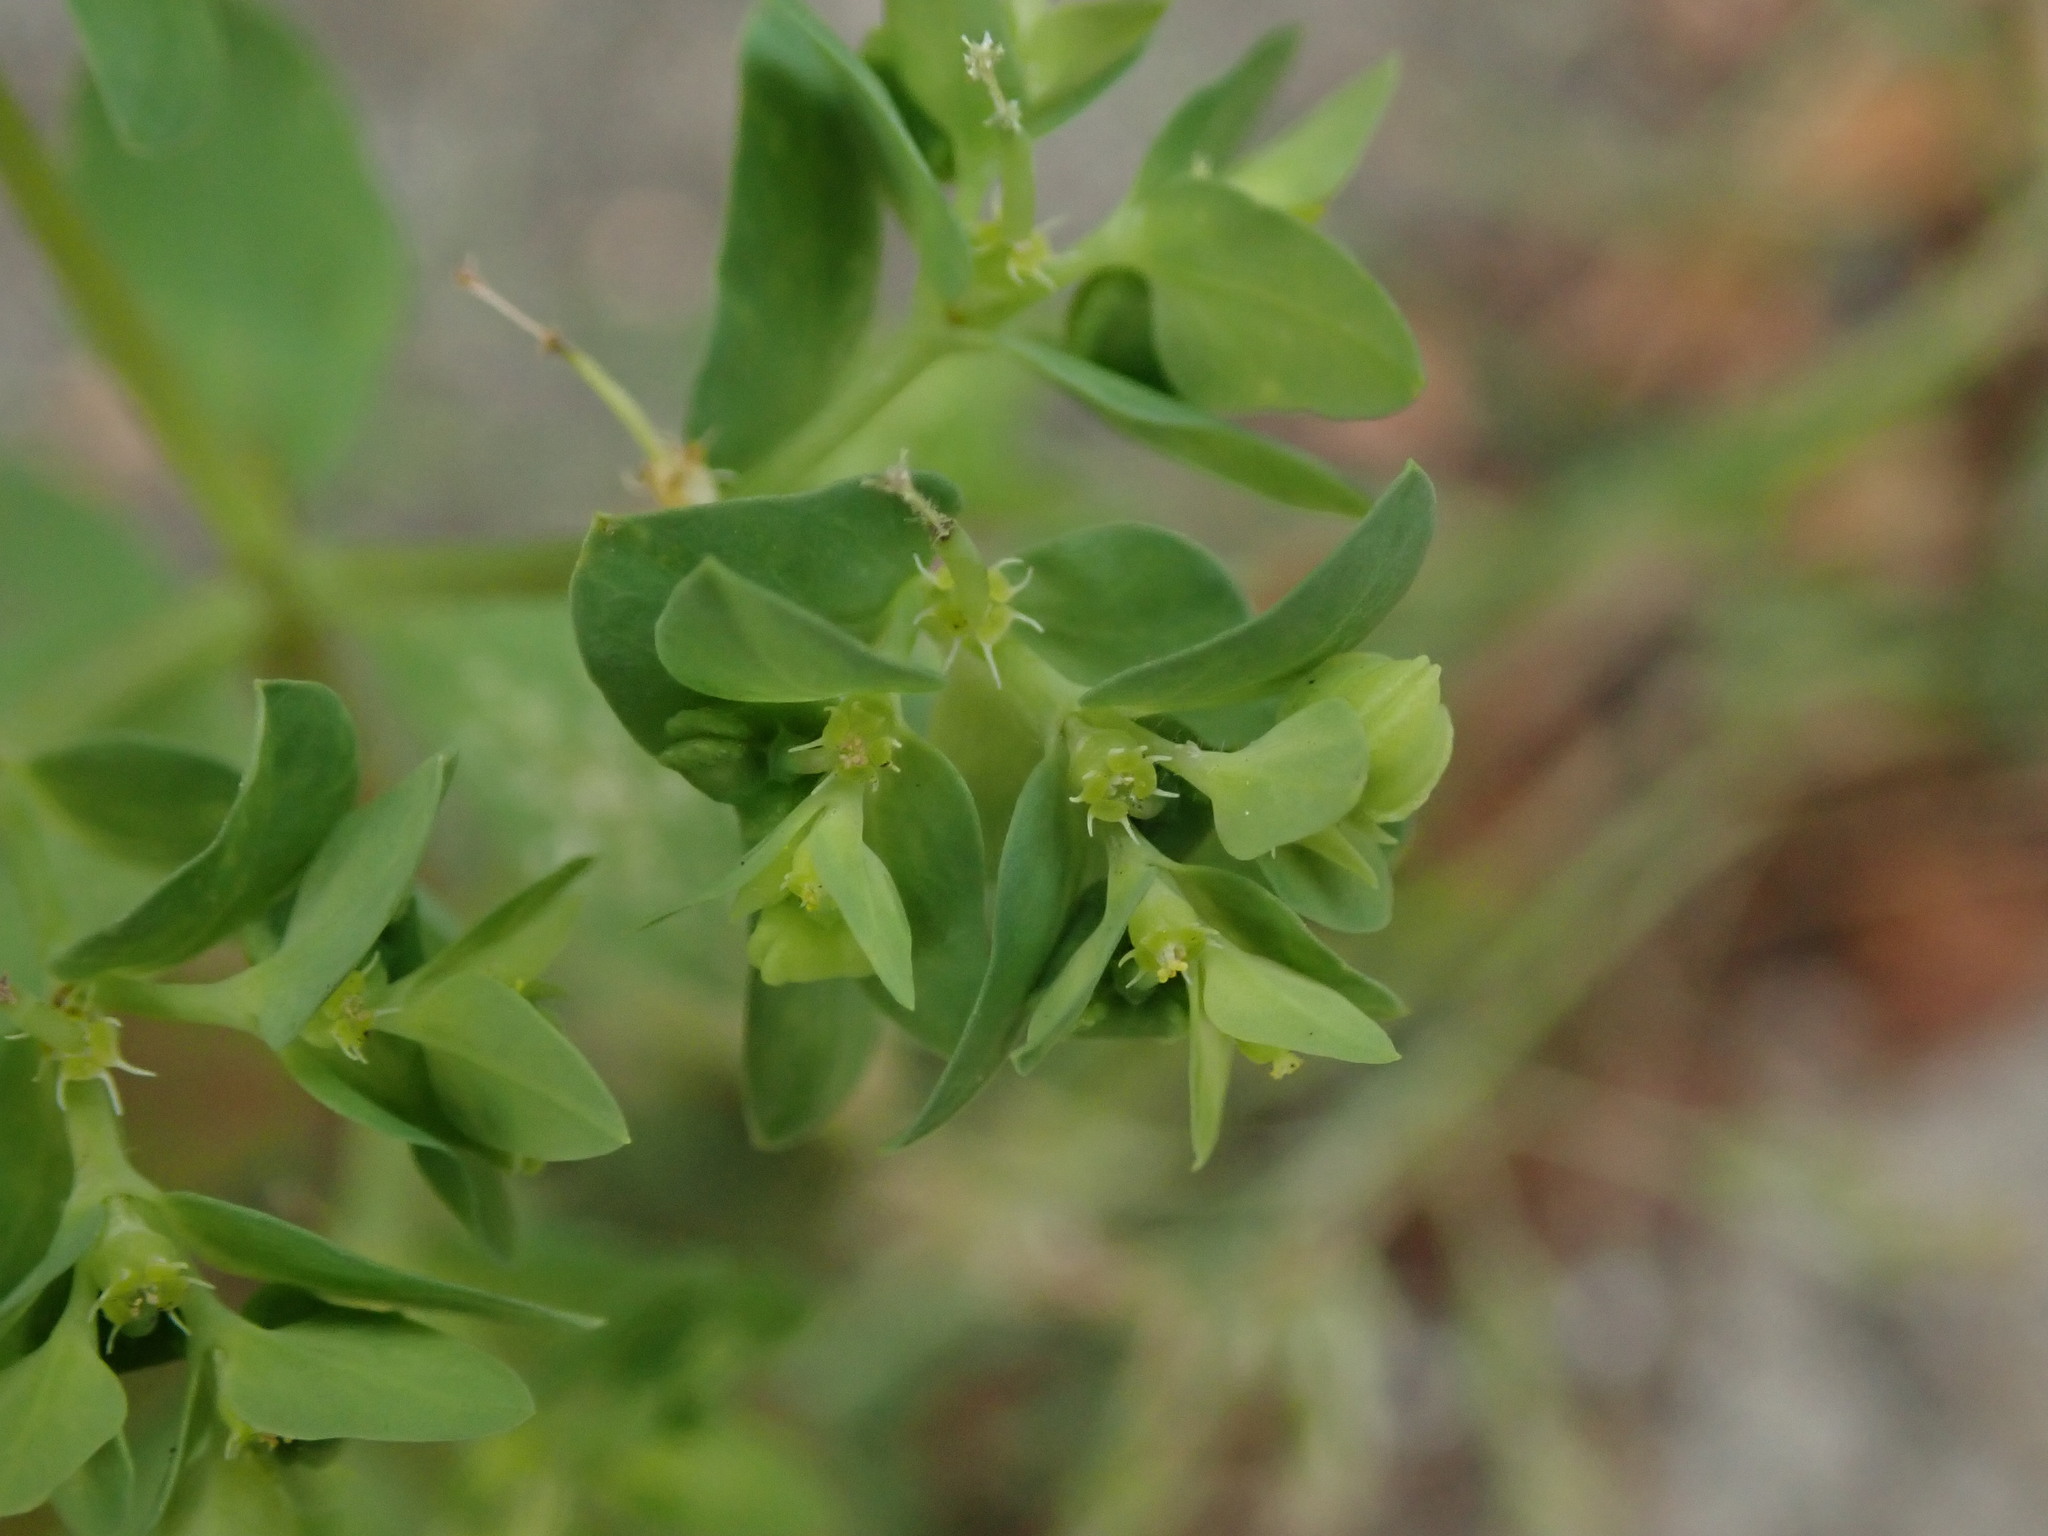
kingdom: Plantae
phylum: Tracheophyta
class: Magnoliopsida
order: Malpighiales
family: Euphorbiaceae
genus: Euphorbia
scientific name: Euphorbia peplus
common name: Petty spurge
